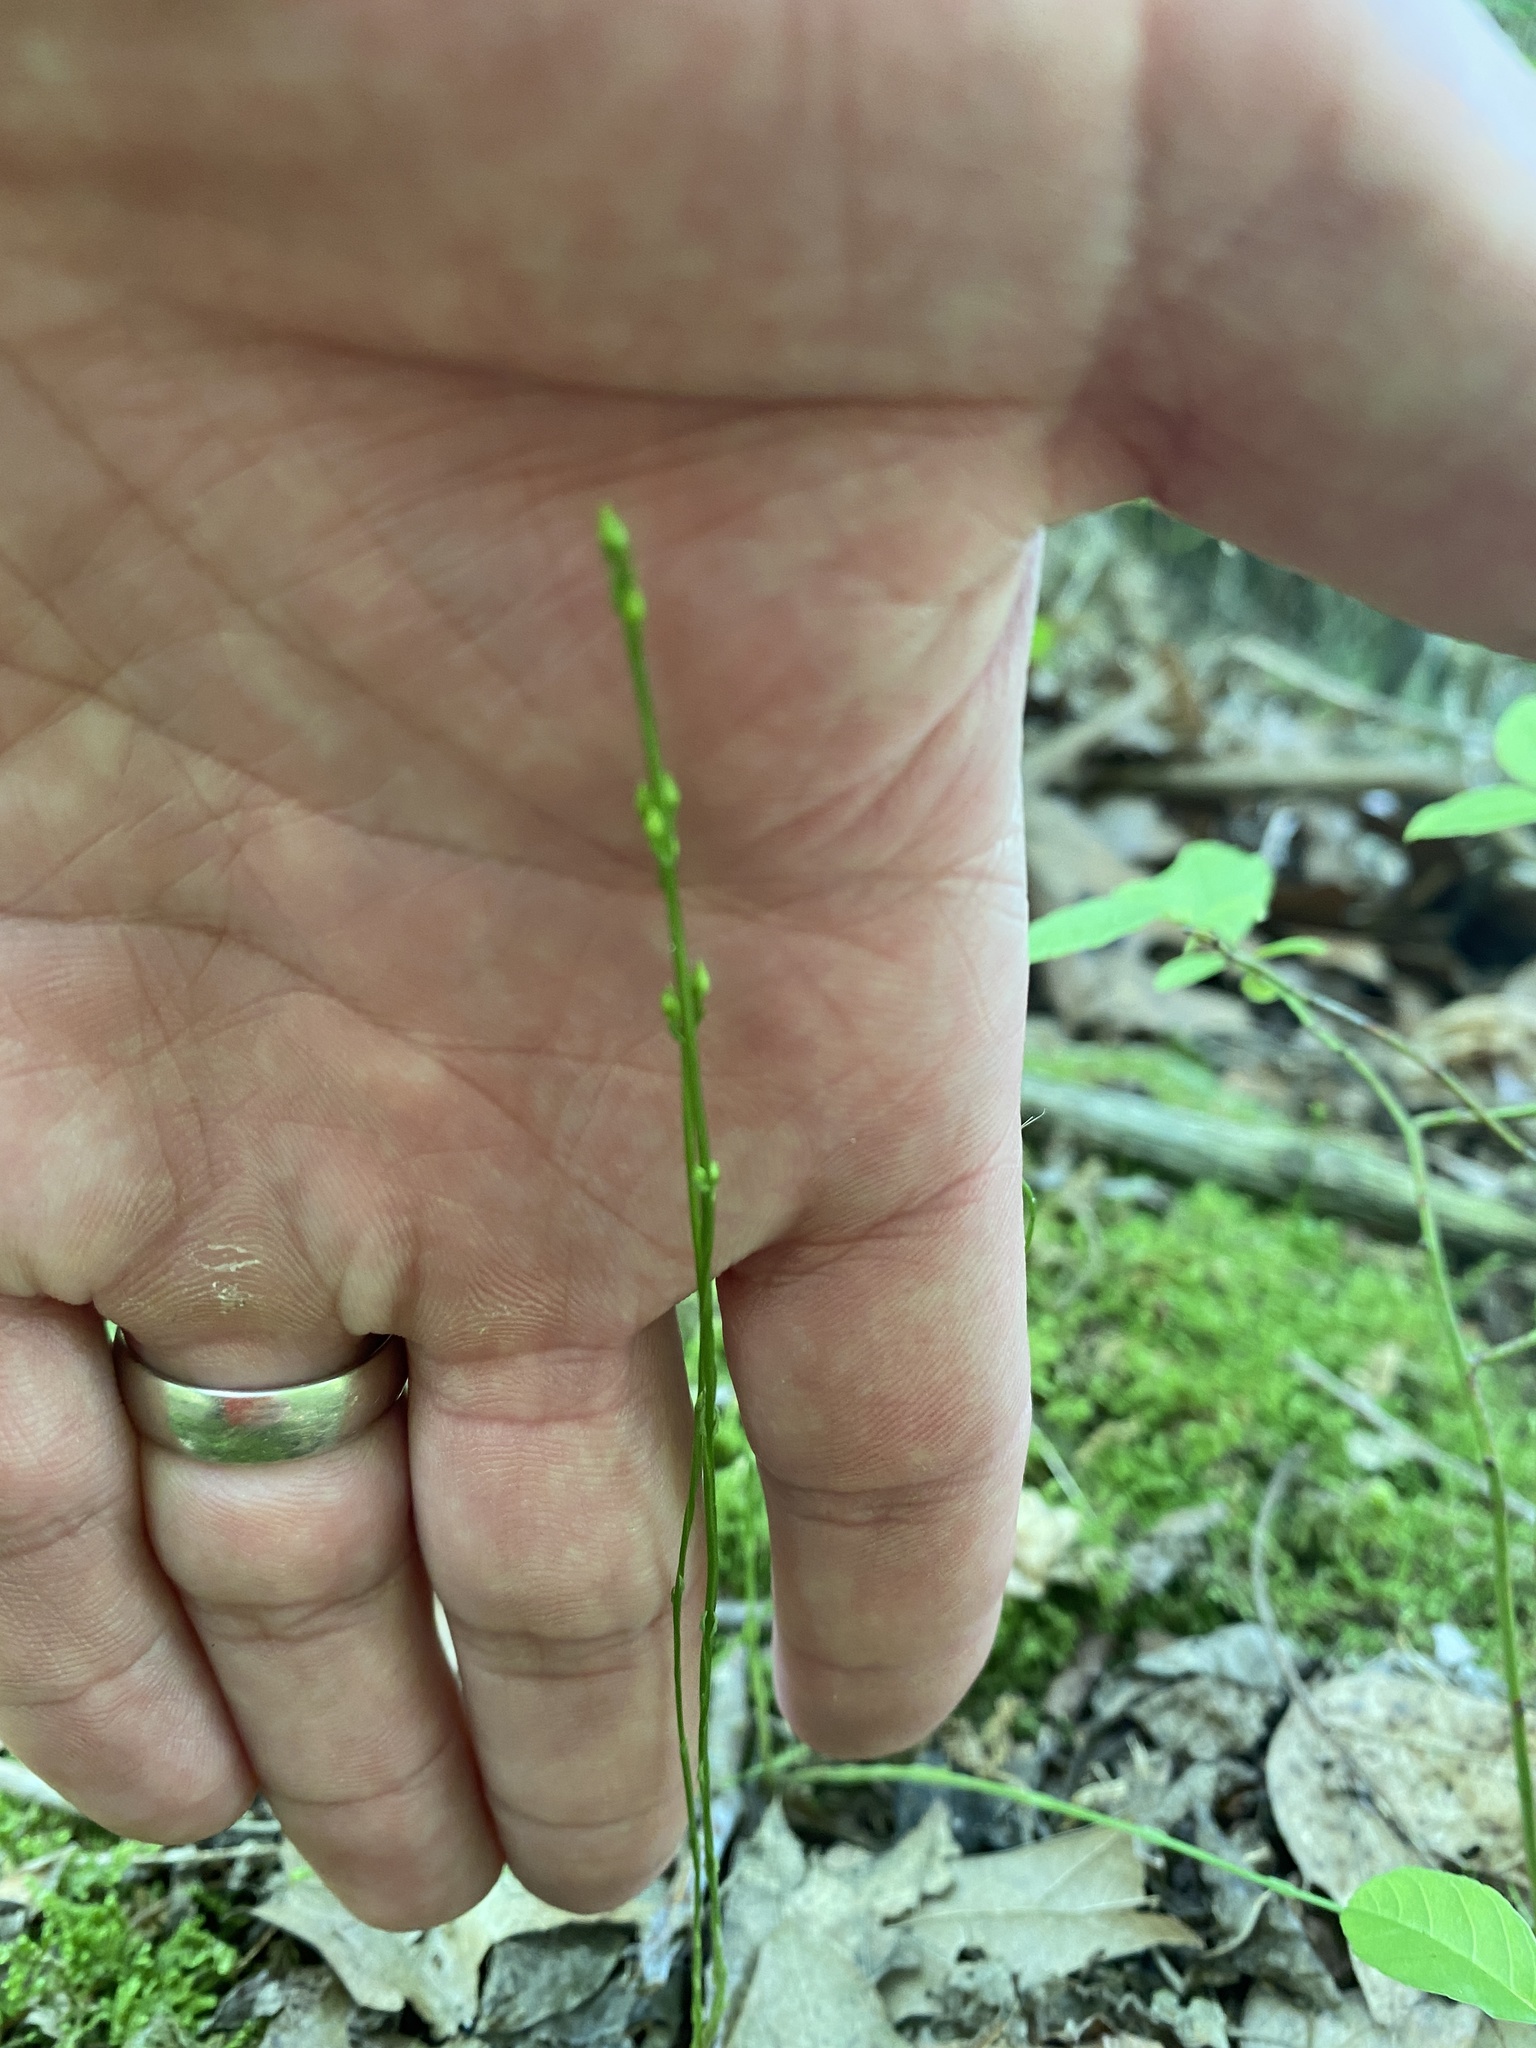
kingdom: Plantae
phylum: Tracheophyta
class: Magnoliopsida
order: Gentianales
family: Gentianaceae
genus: Bartonia
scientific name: Bartonia virginica
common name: Yellow bartonia
